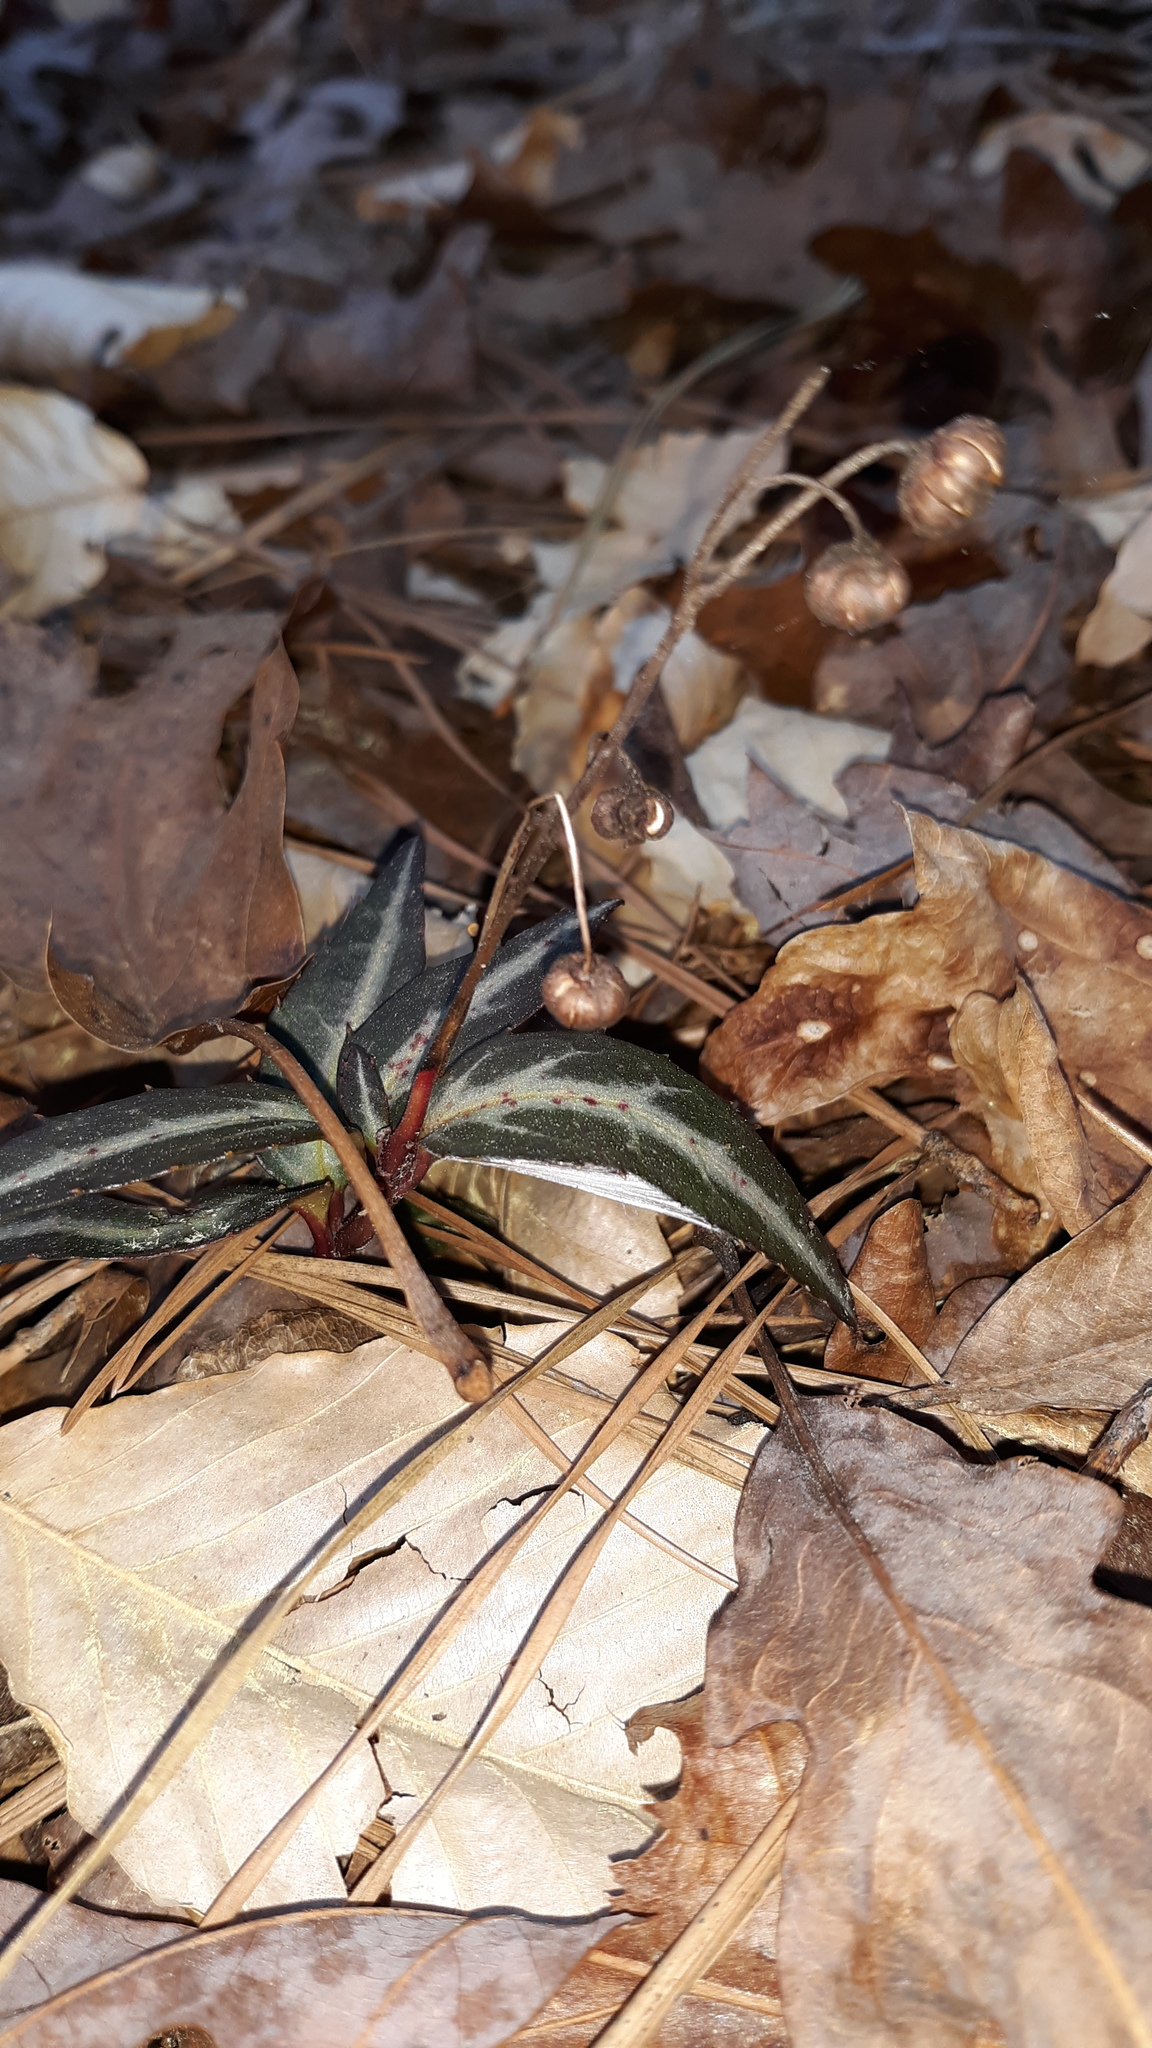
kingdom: Plantae
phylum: Tracheophyta
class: Magnoliopsida
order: Ericales
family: Ericaceae
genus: Chimaphila
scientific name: Chimaphila maculata
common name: Spotted pipsissewa
